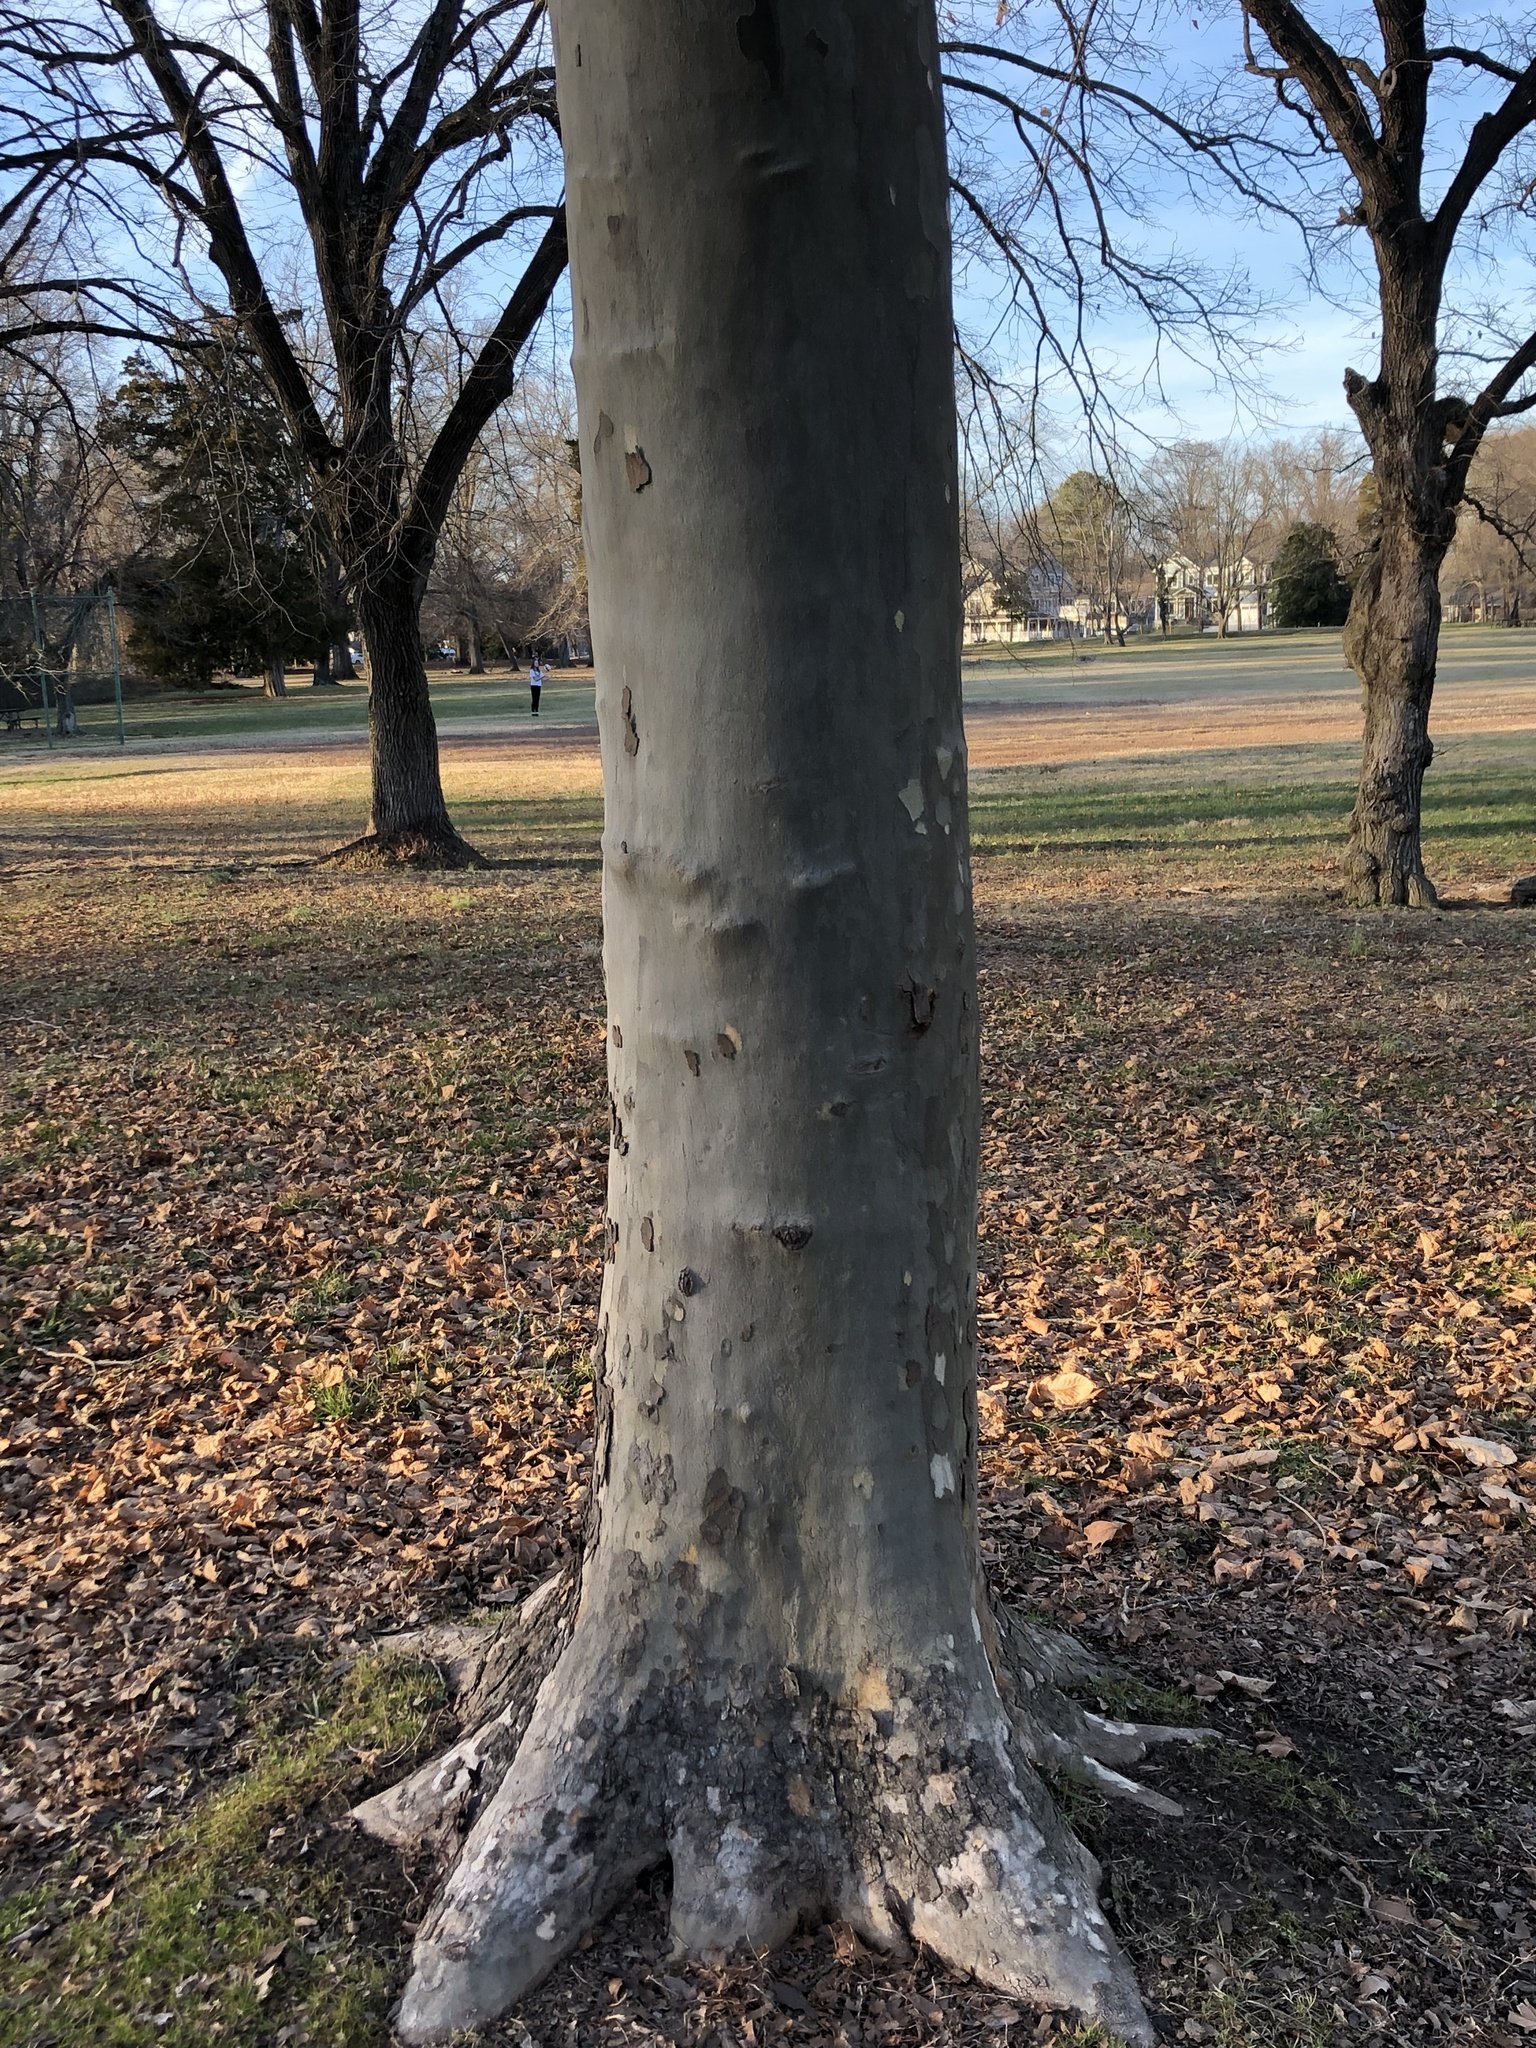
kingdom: Plantae
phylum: Tracheophyta
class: Magnoliopsida
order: Proteales
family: Platanaceae
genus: Platanus
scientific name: Platanus occidentalis
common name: American sycamore
